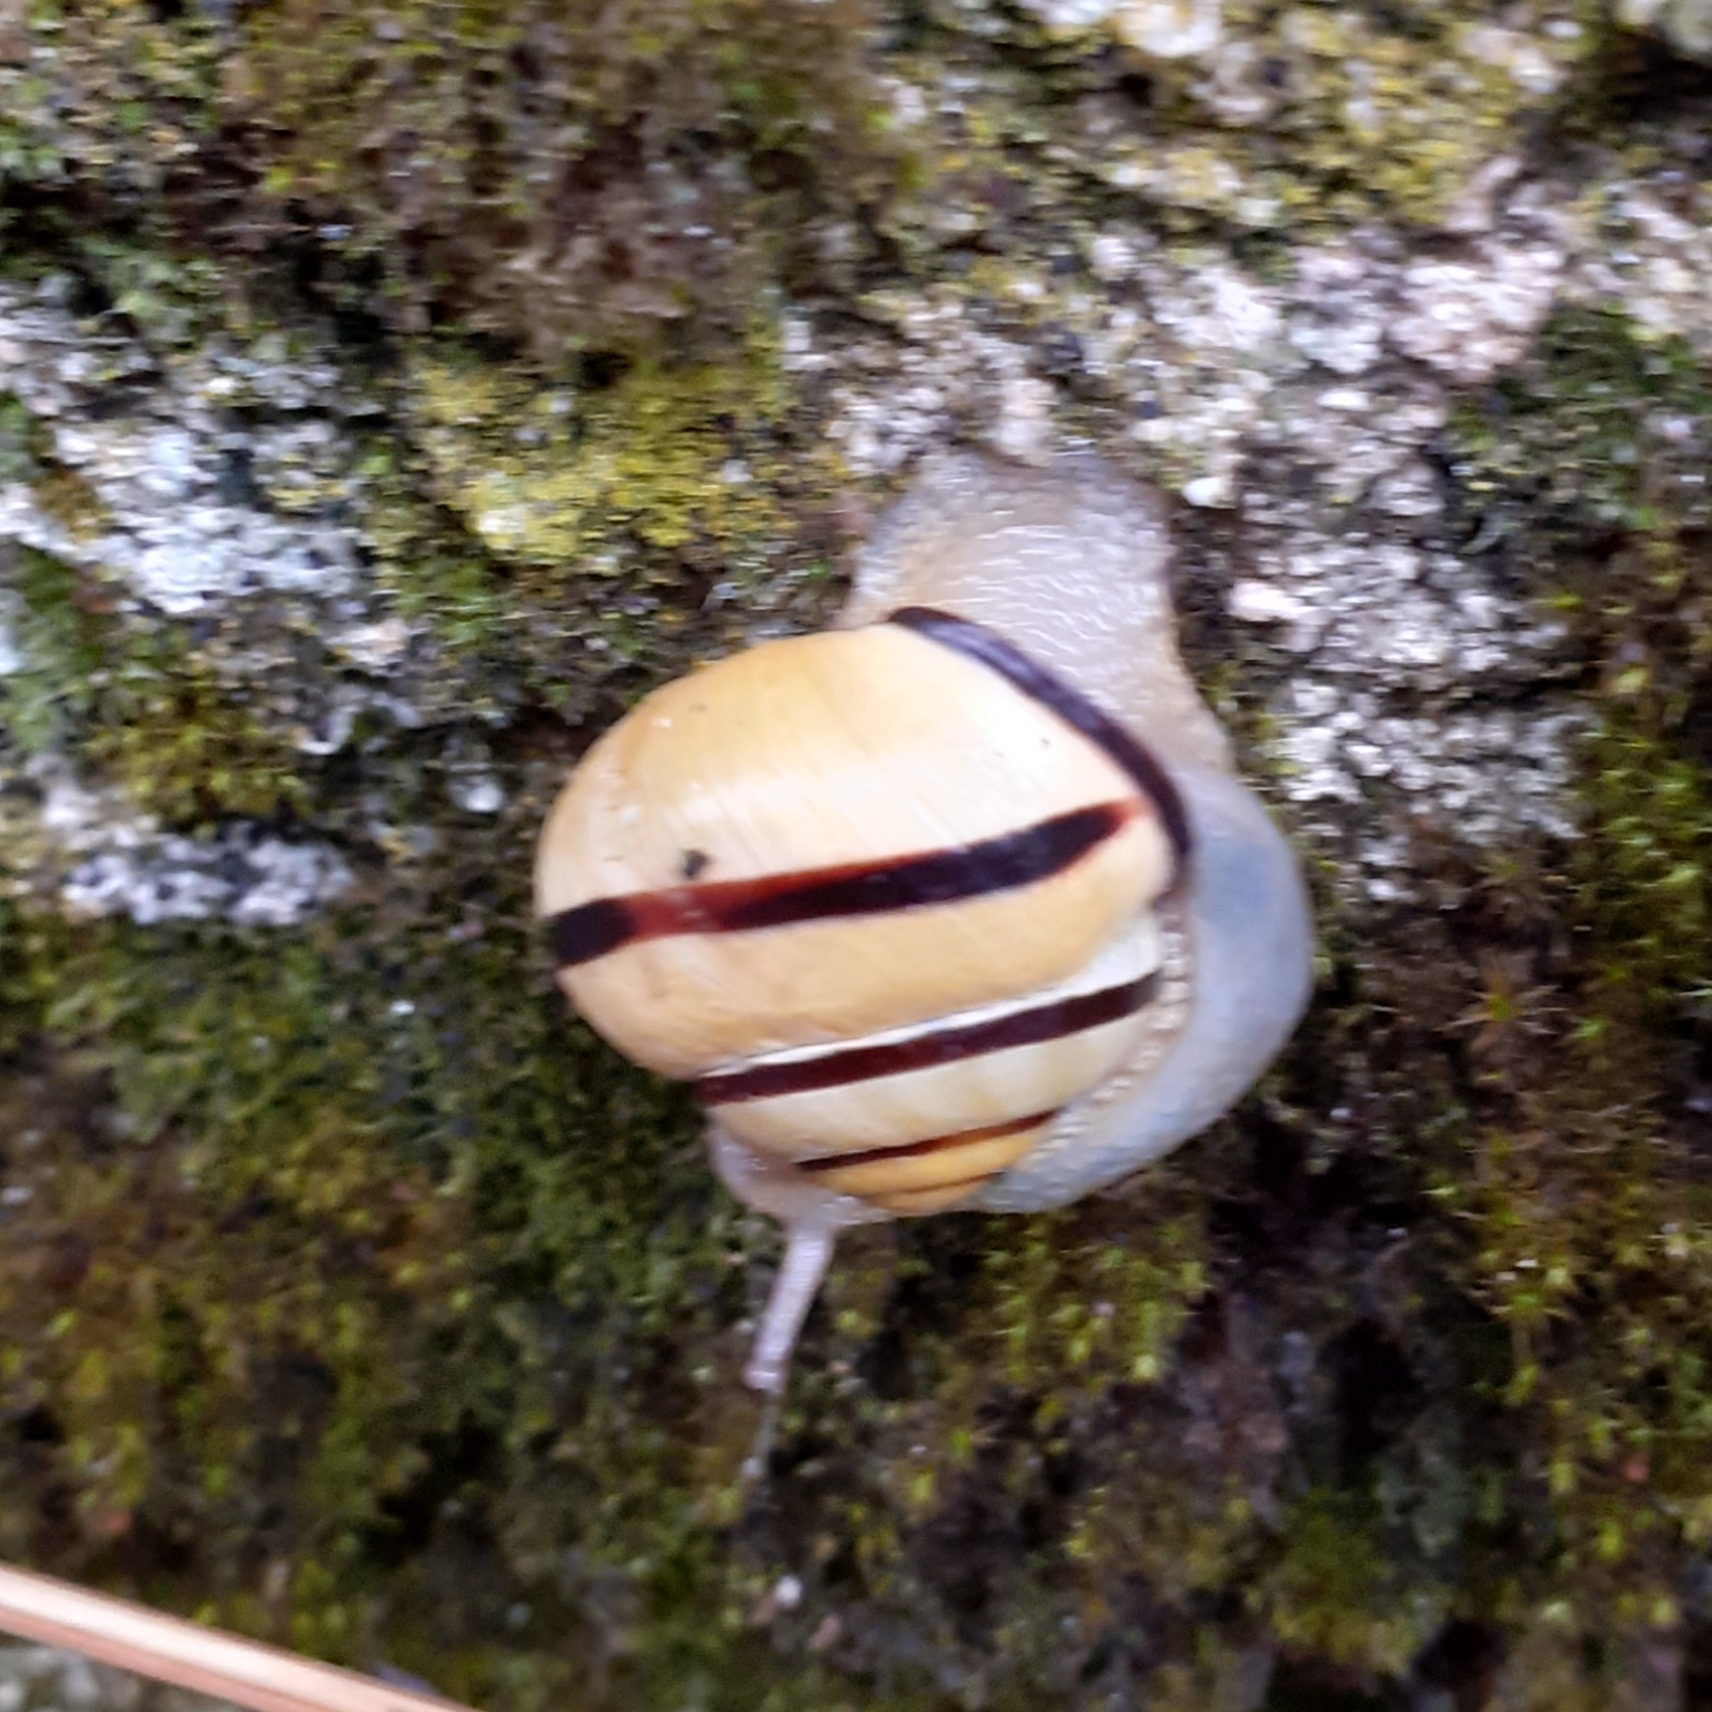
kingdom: Animalia
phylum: Mollusca
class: Gastropoda
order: Stylommatophora
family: Helicidae
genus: Cepaea
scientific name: Cepaea nemoralis
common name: Grovesnail
